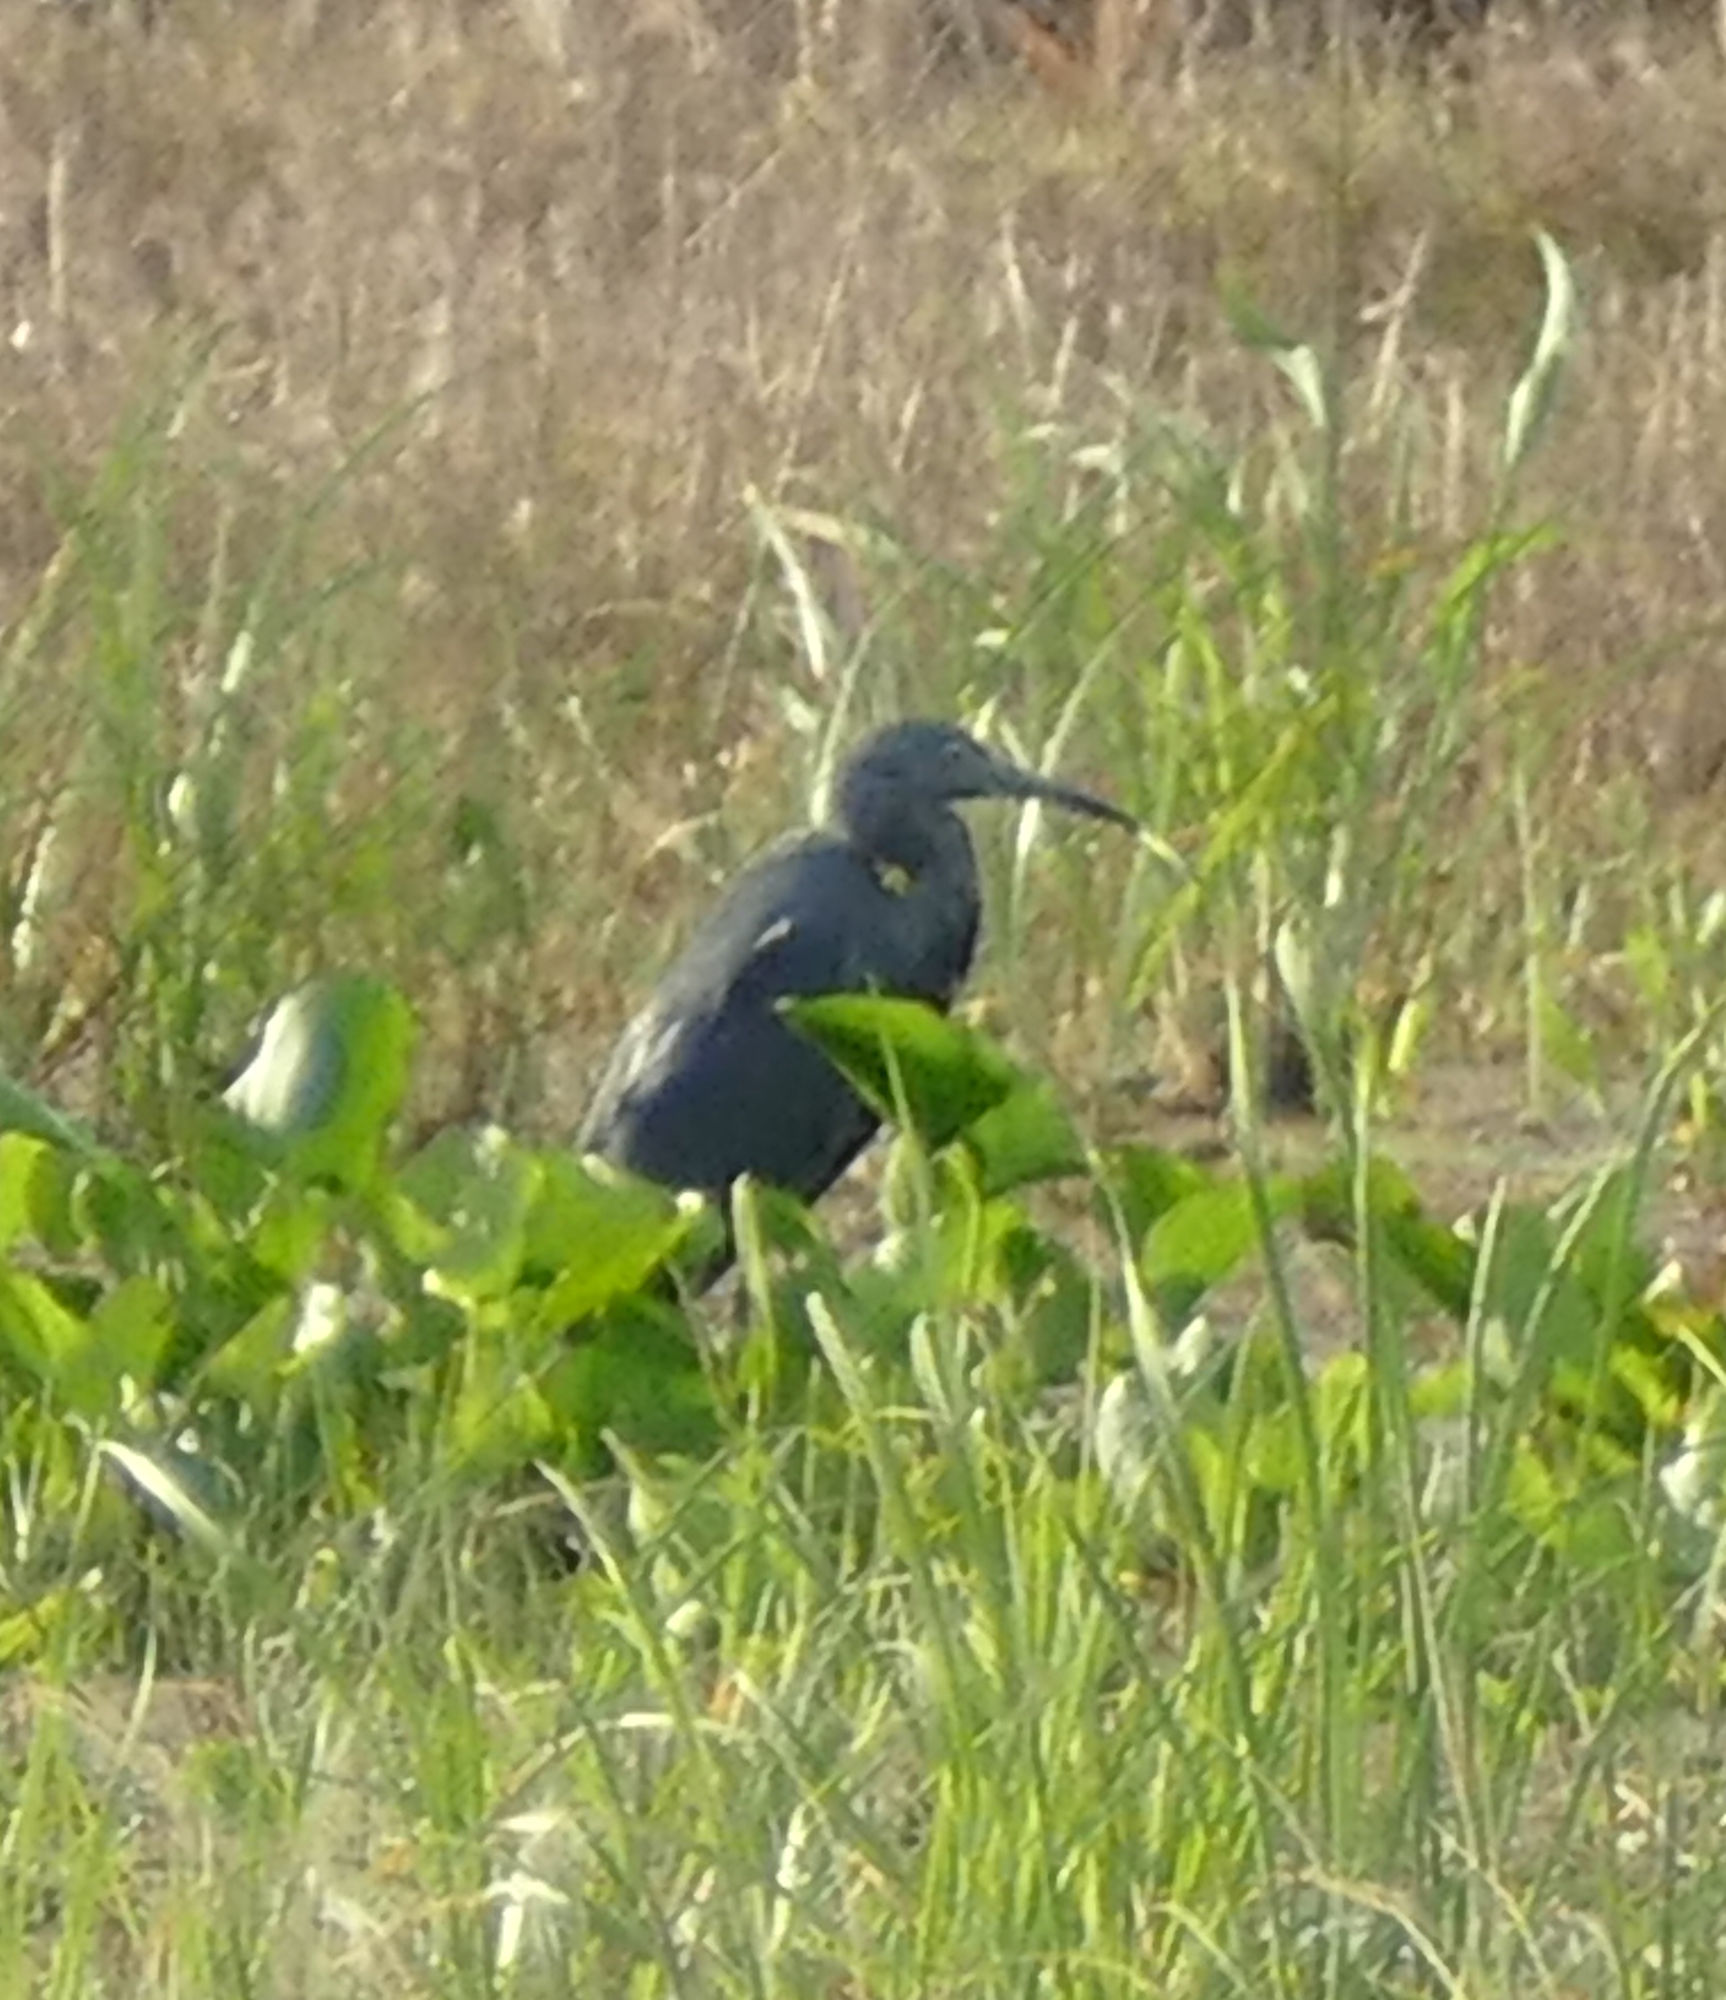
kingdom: Animalia
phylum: Chordata
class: Aves
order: Pelecaniformes
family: Ardeidae
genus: Egretta
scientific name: Egretta caerulea
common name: Little blue heron
